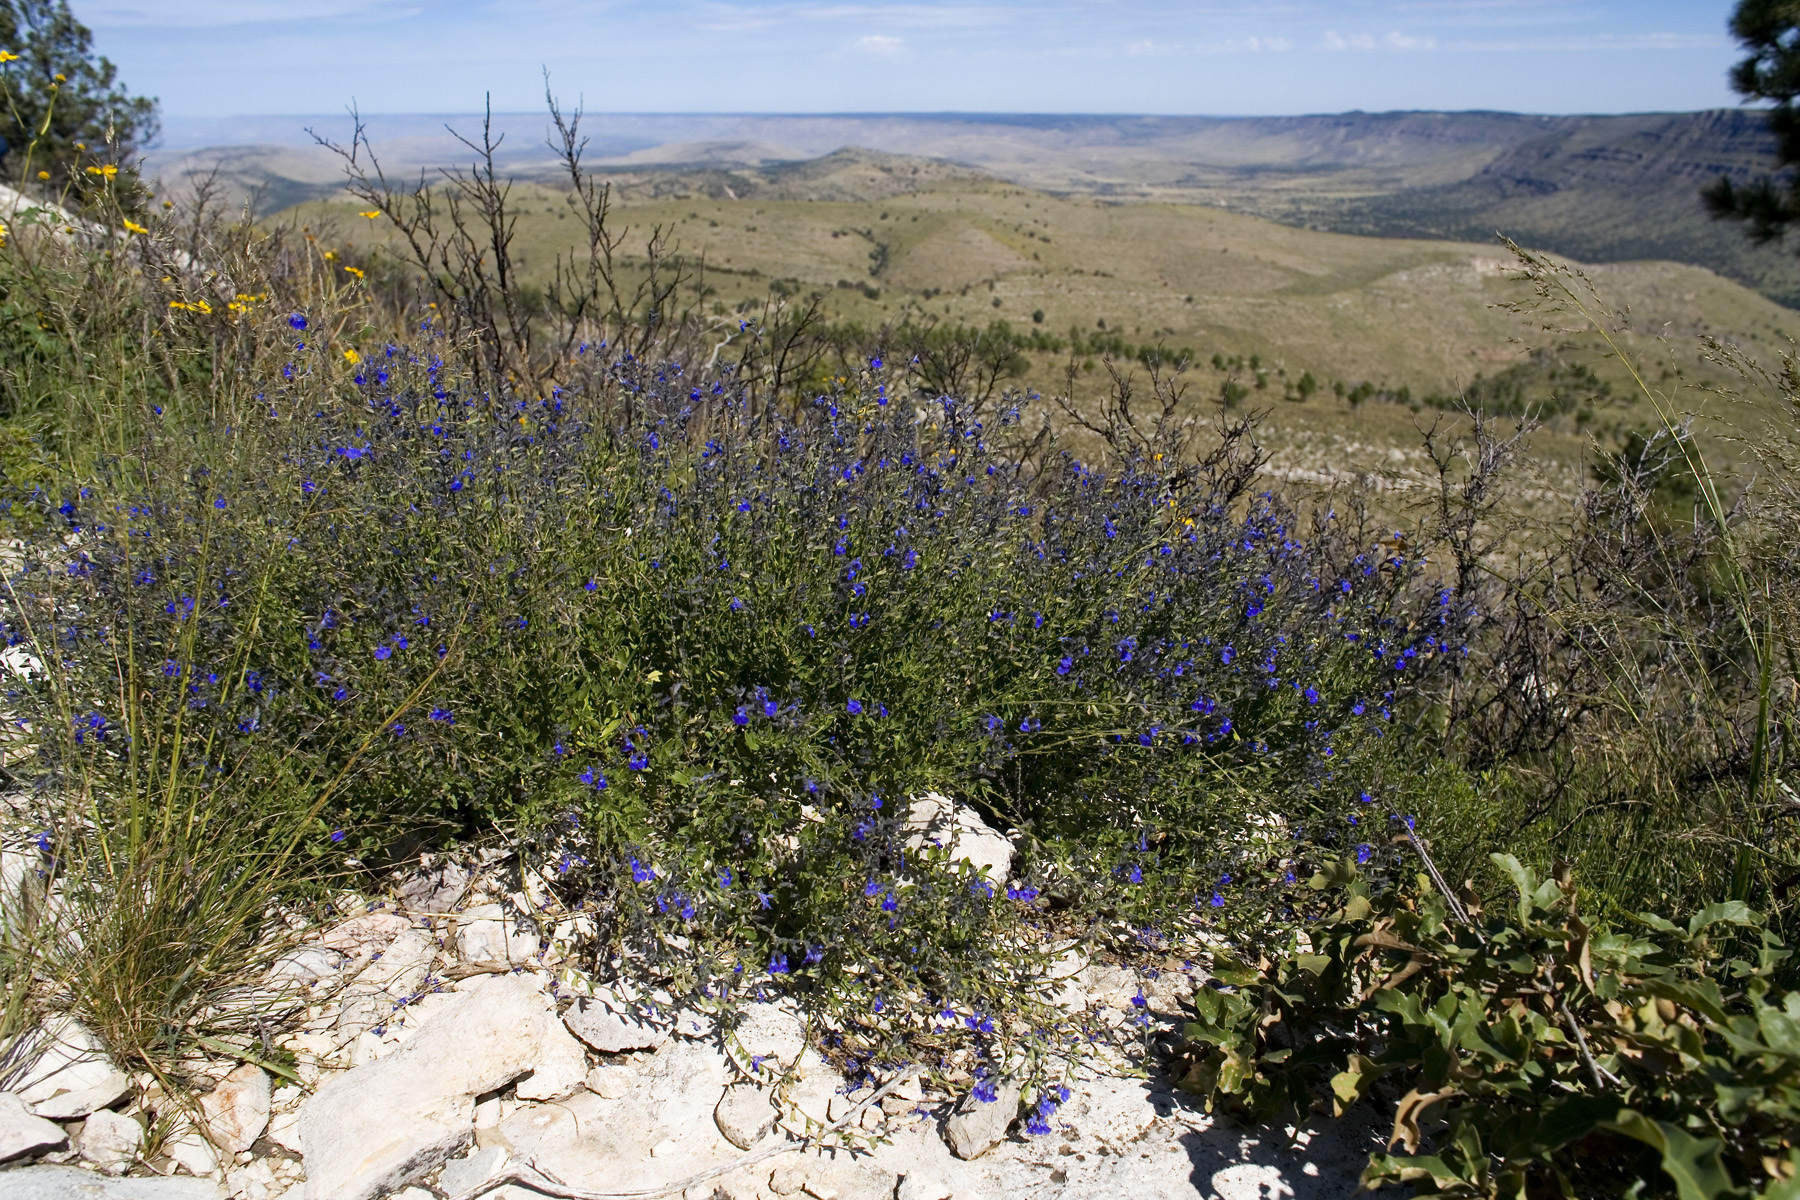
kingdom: Plantae
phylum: Tracheophyta
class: Magnoliopsida
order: Lamiales
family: Lamiaceae
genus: Salvia
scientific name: Salvia lycioides
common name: Canyon sage
